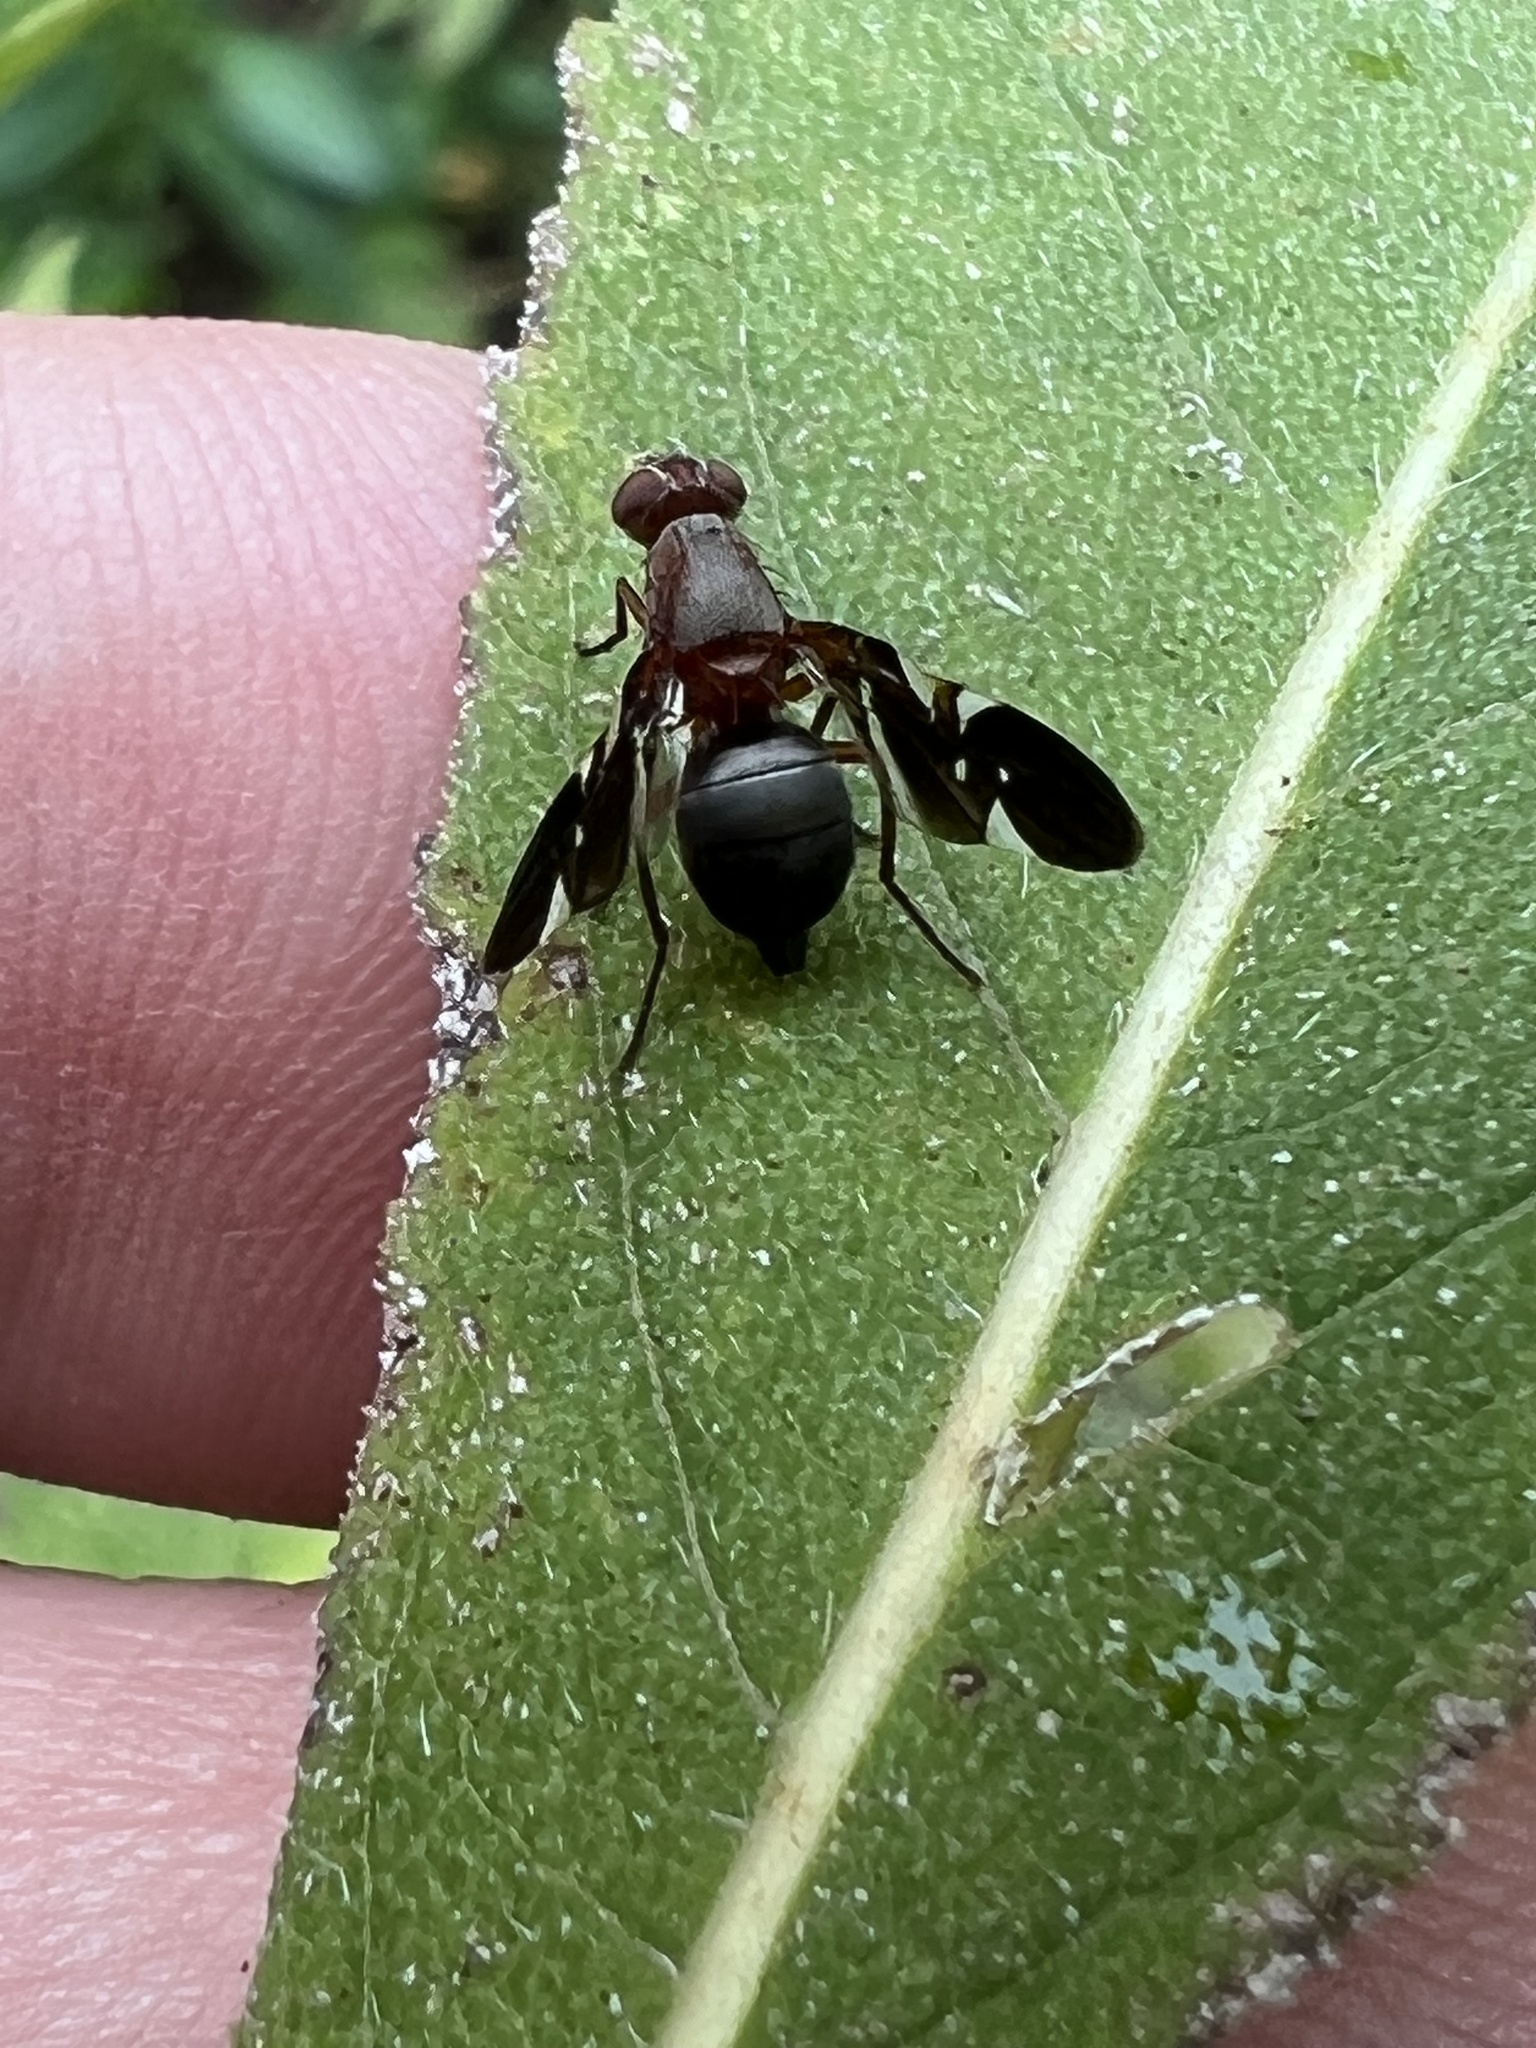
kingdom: Animalia
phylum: Arthropoda
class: Insecta
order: Diptera
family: Ulidiidae
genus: Delphinia
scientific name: Delphinia picta
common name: Common picture-winged fly
